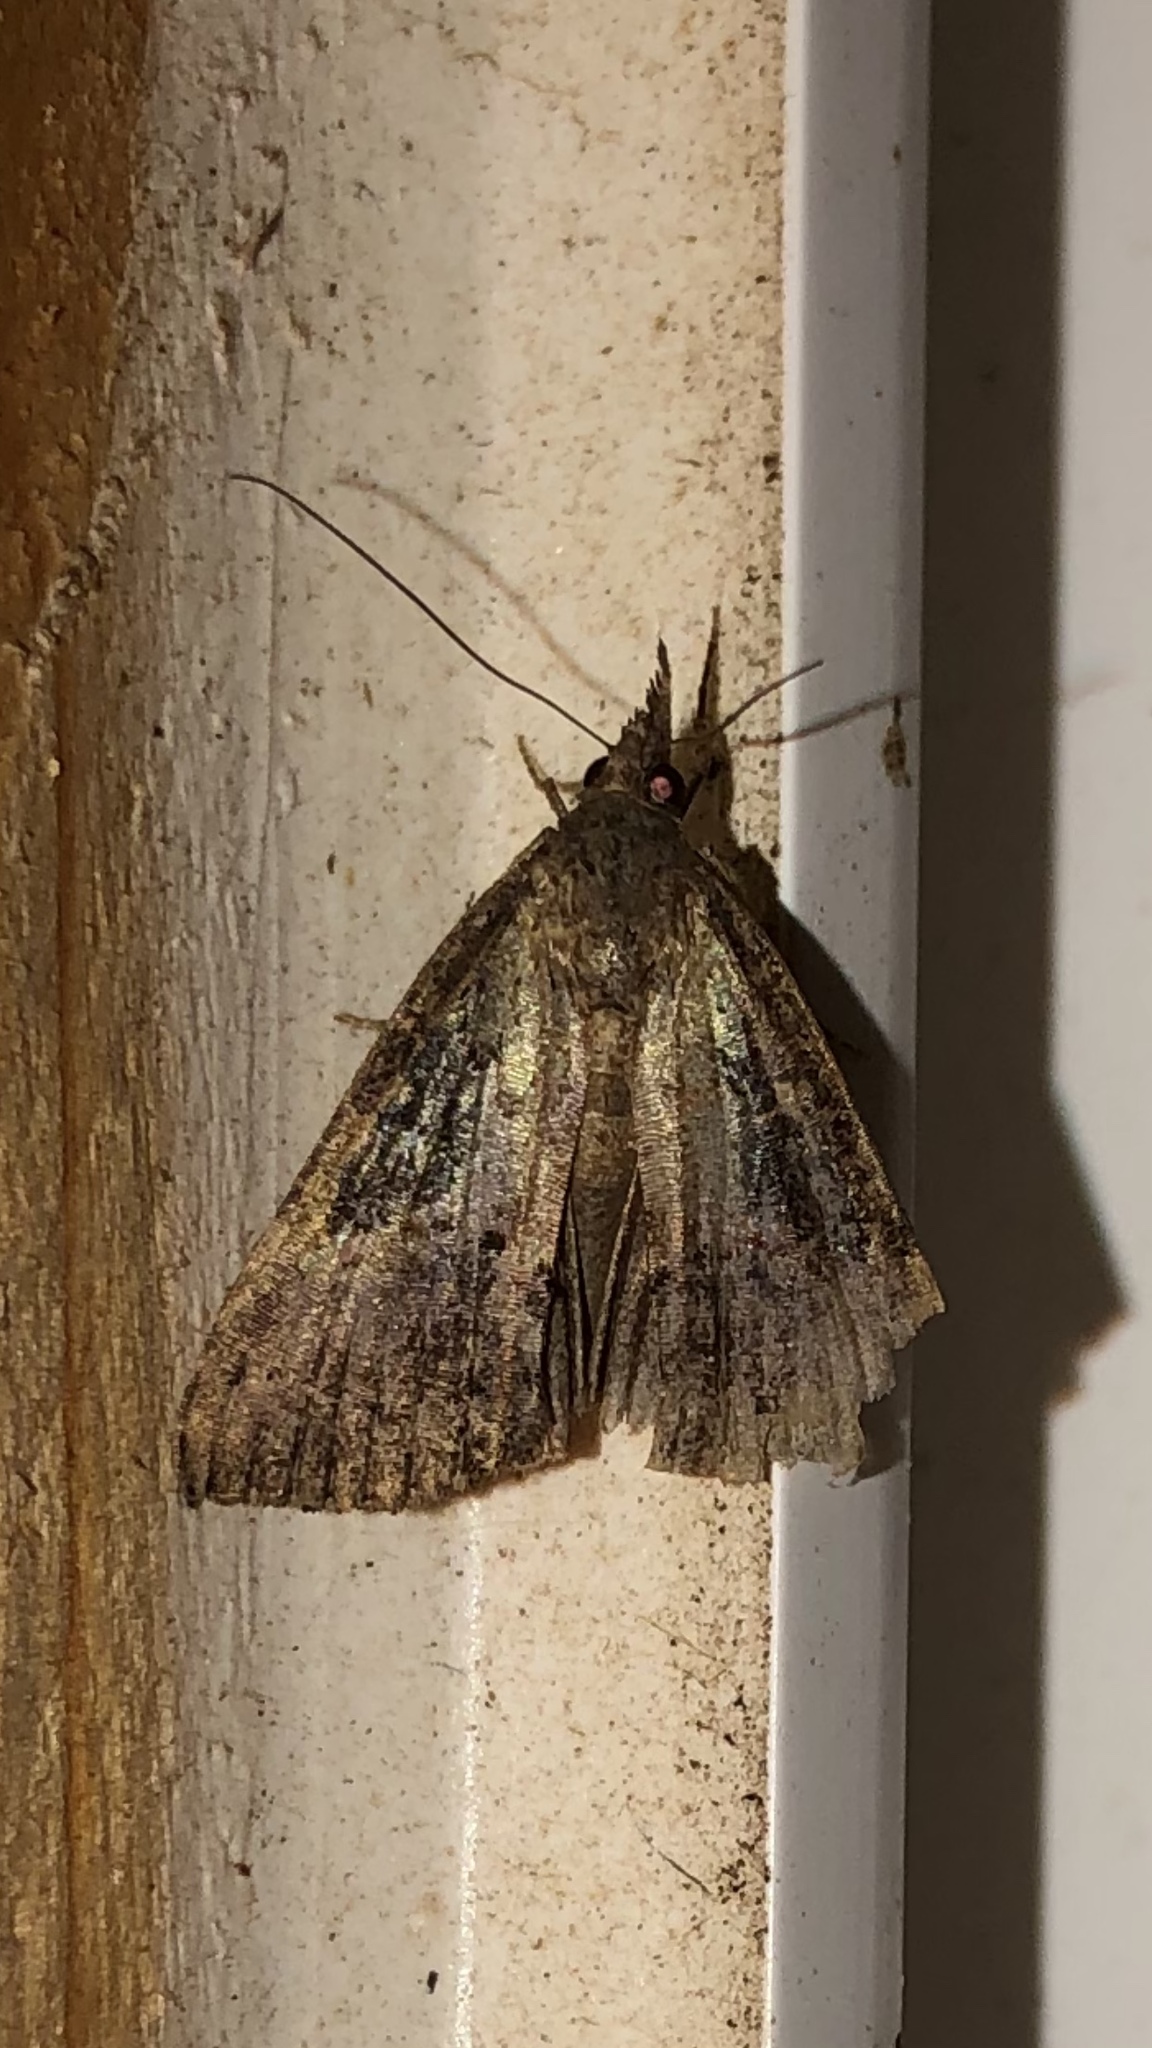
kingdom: Animalia
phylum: Arthropoda
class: Insecta
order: Lepidoptera
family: Erebidae
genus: Hypena
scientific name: Hypena scabra
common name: Green cloverworm
